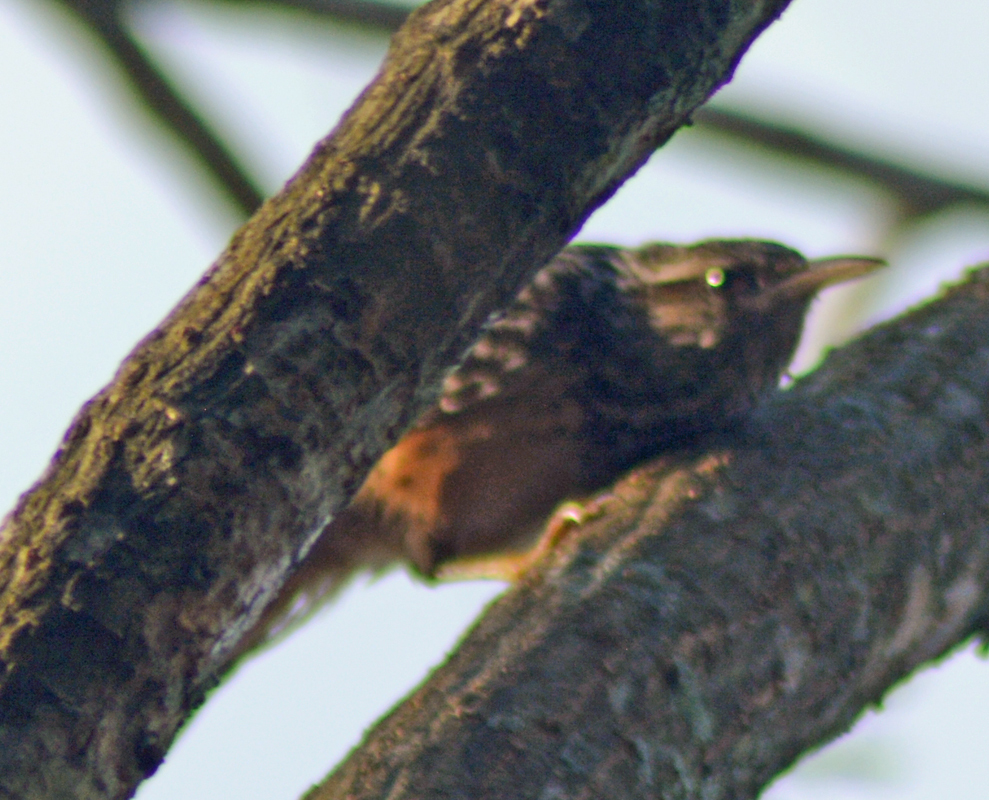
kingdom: Animalia
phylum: Chordata
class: Aves
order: Passeriformes
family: Troglodytidae
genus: Campylorhynchus
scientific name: Campylorhynchus zonatus
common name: Band-backed wren
